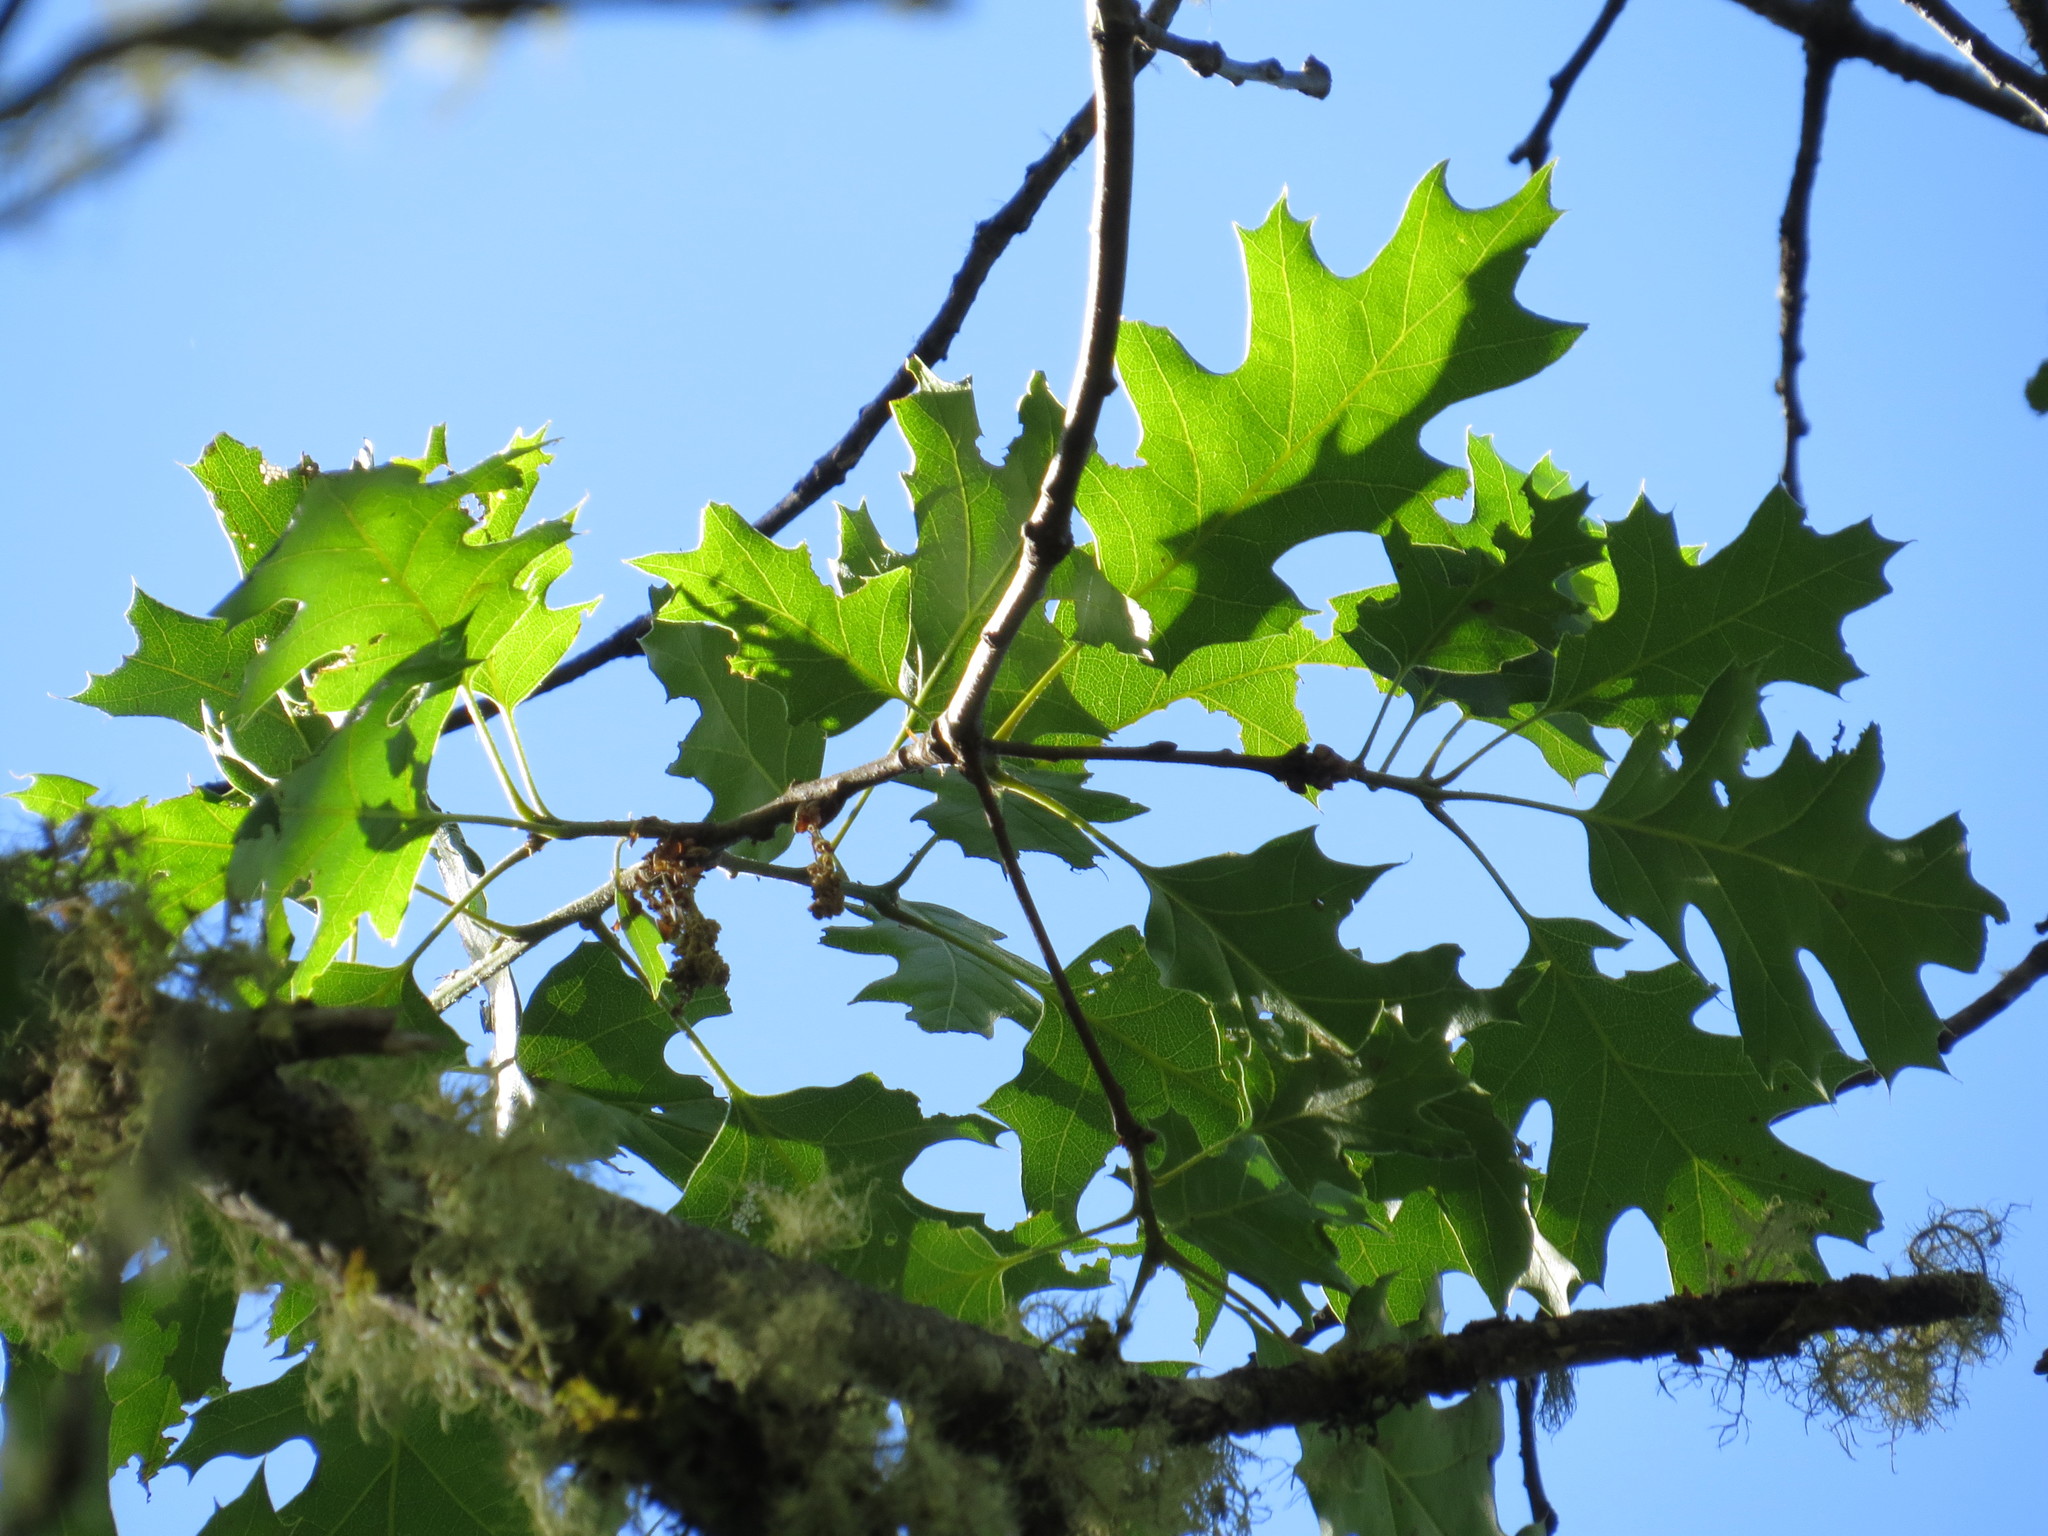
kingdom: Plantae
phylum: Tracheophyta
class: Magnoliopsida
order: Fagales
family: Fagaceae
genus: Quercus
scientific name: Quercus kelloggii
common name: California black oak
